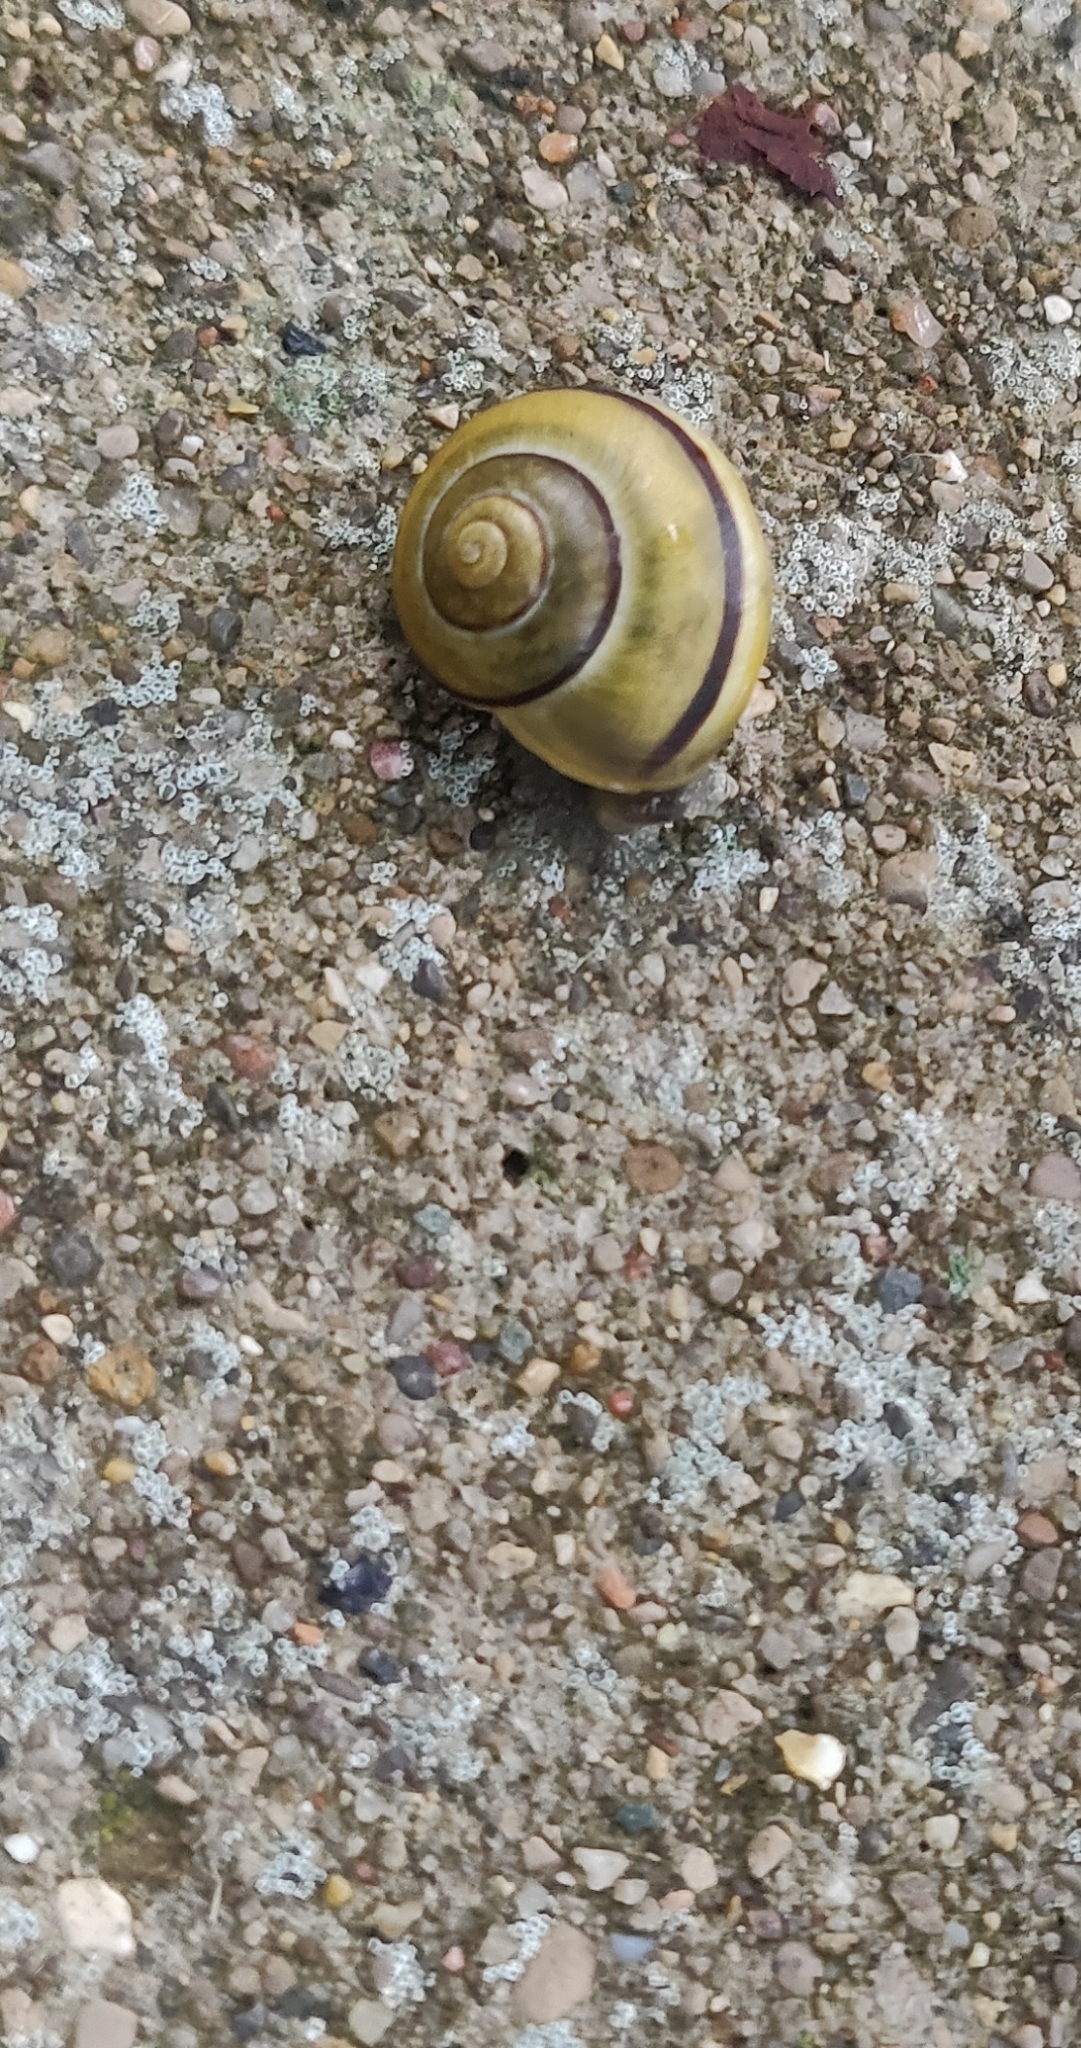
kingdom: Animalia
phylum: Mollusca
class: Gastropoda
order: Stylommatophora
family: Helicidae
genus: Cepaea
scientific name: Cepaea nemoralis
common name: Grovesnail
